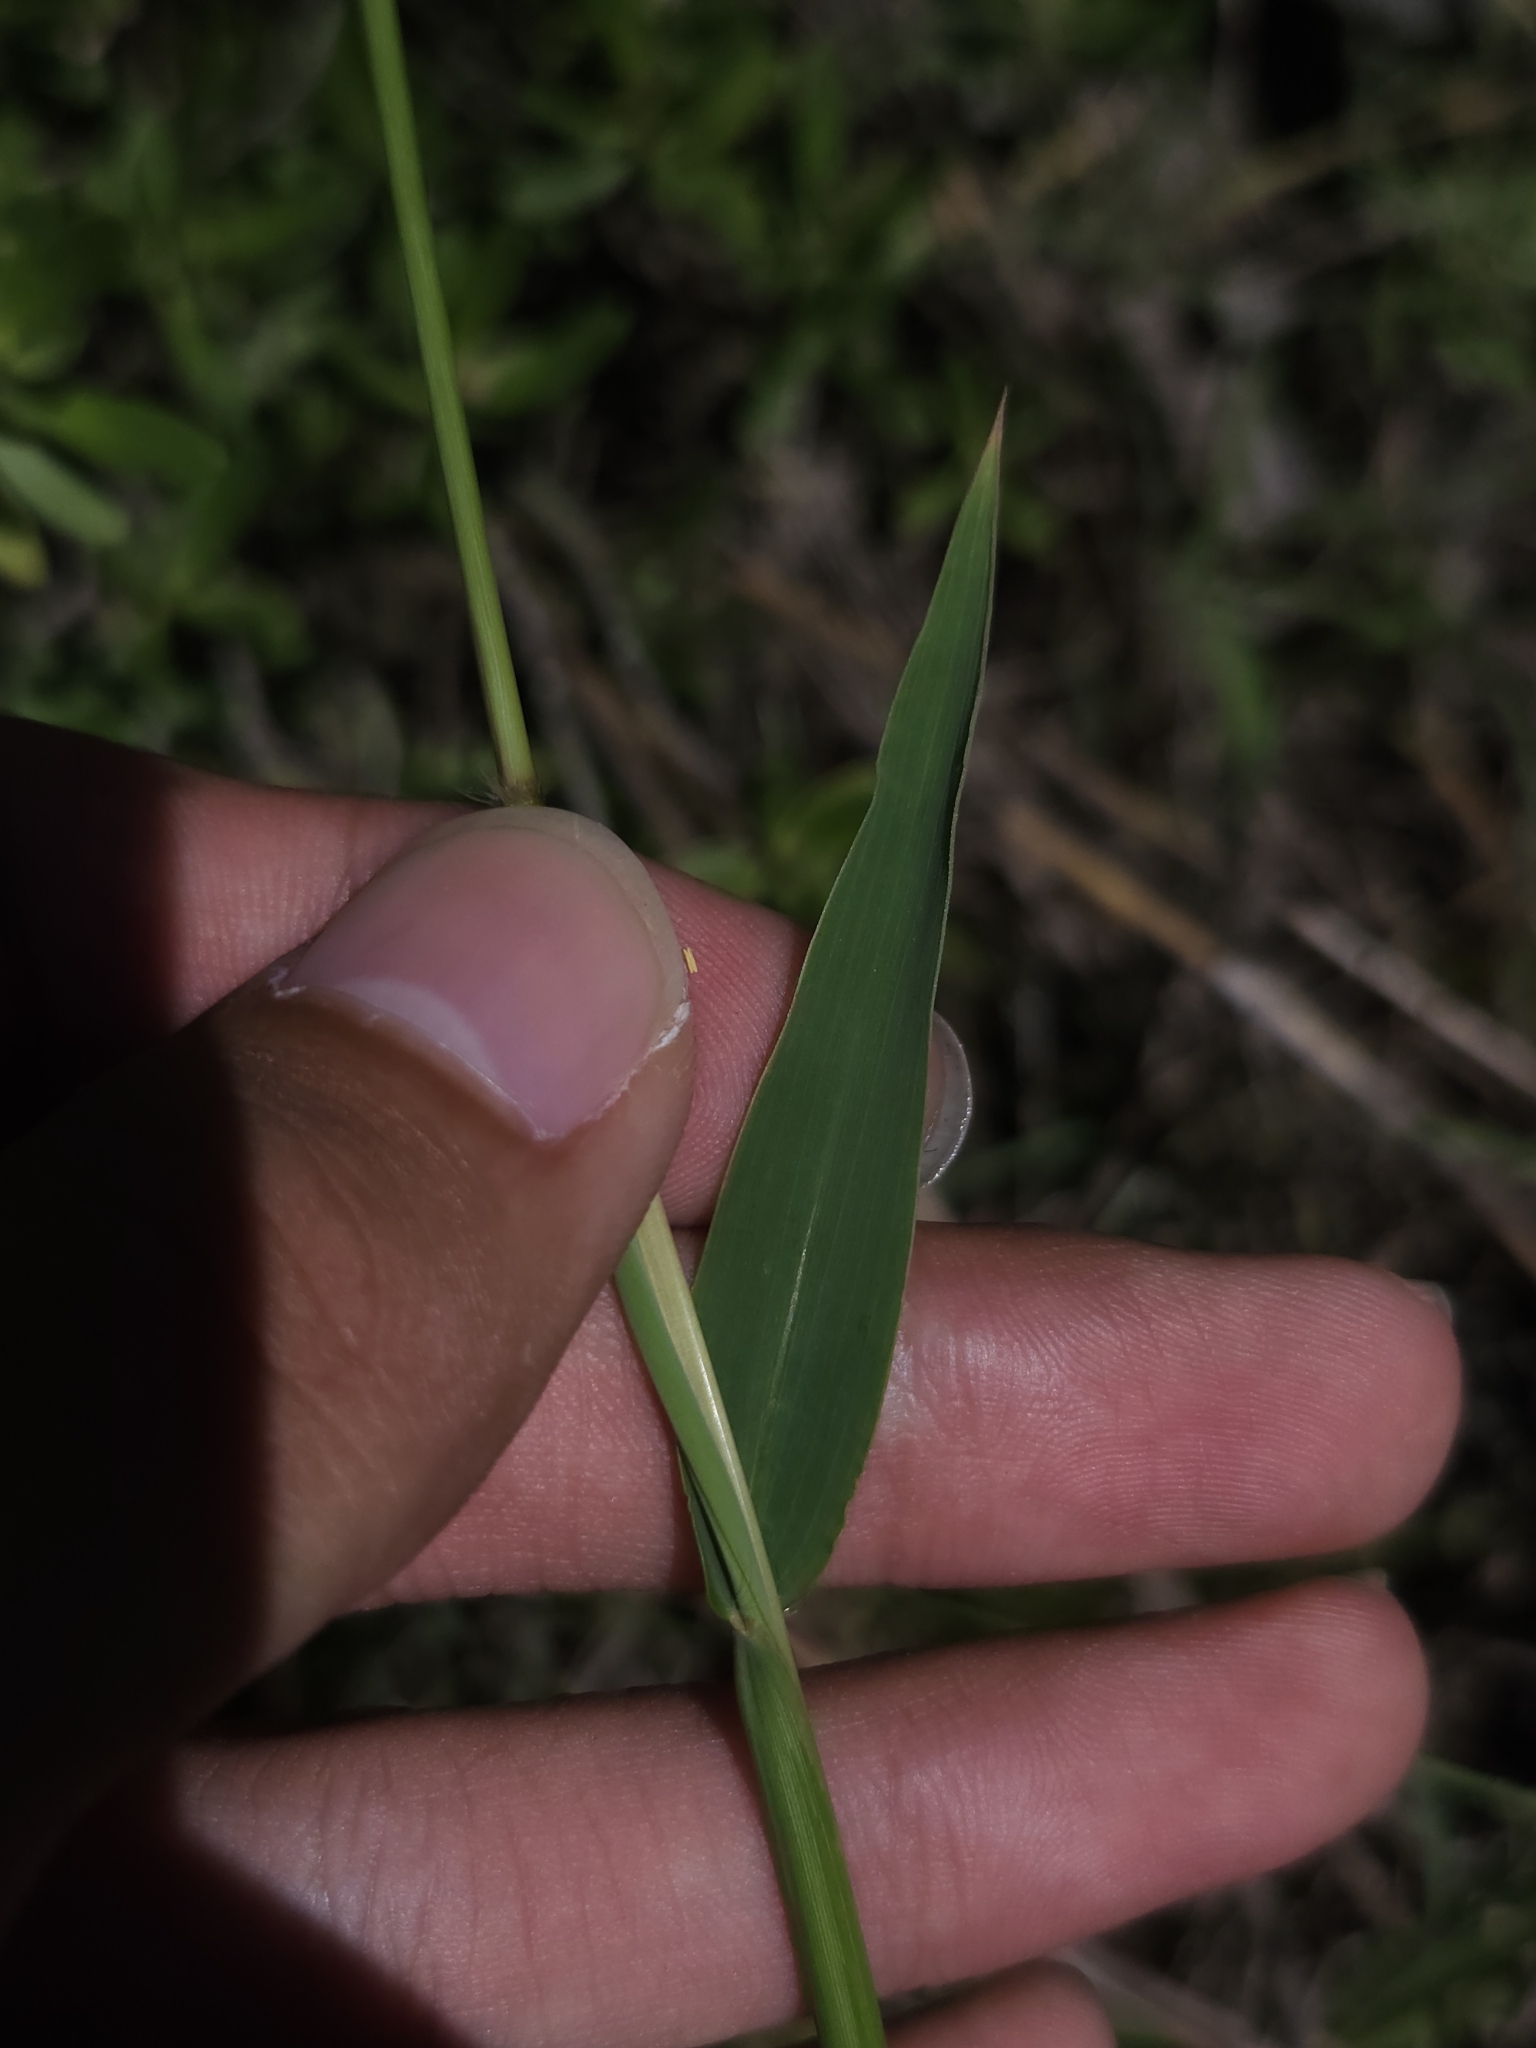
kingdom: Plantae
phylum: Tracheophyta
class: Liliopsida
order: Poales
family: Poaceae
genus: Ischaemum
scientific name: Ischaemum setaceum
